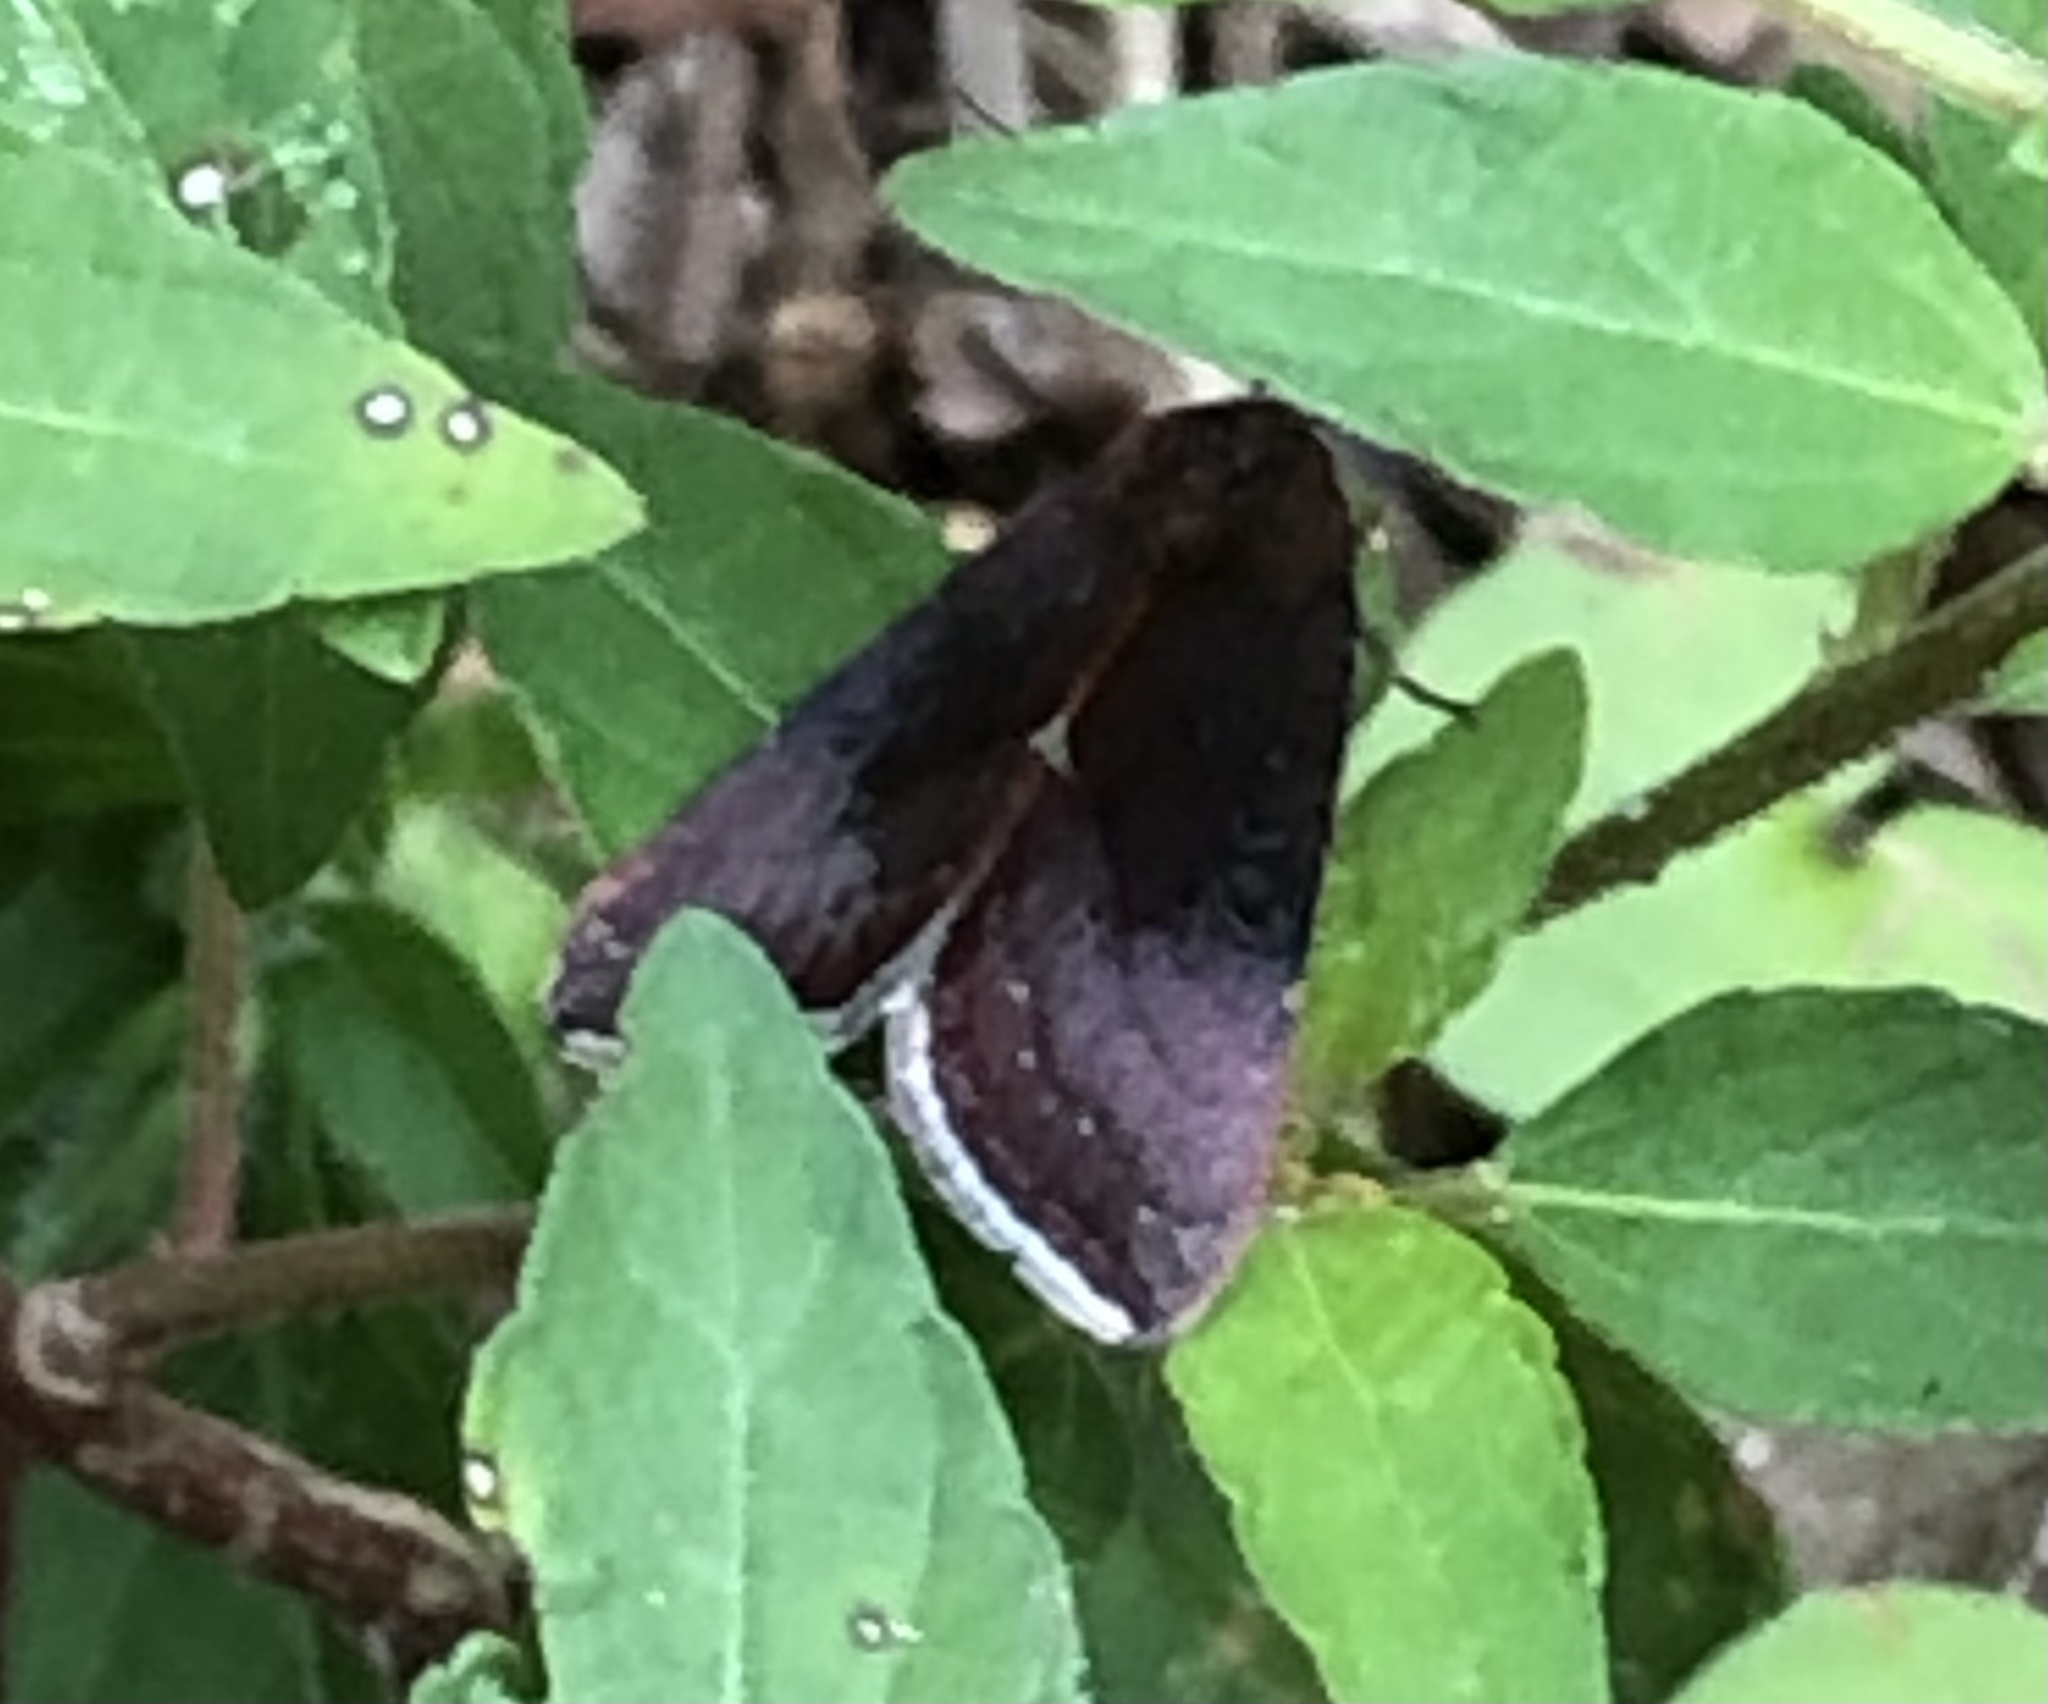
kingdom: Animalia
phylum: Arthropoda
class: Insecta
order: Lepidoptera
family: Noctuidae
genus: Galgula
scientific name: Galgula partita
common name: Wedgeling
